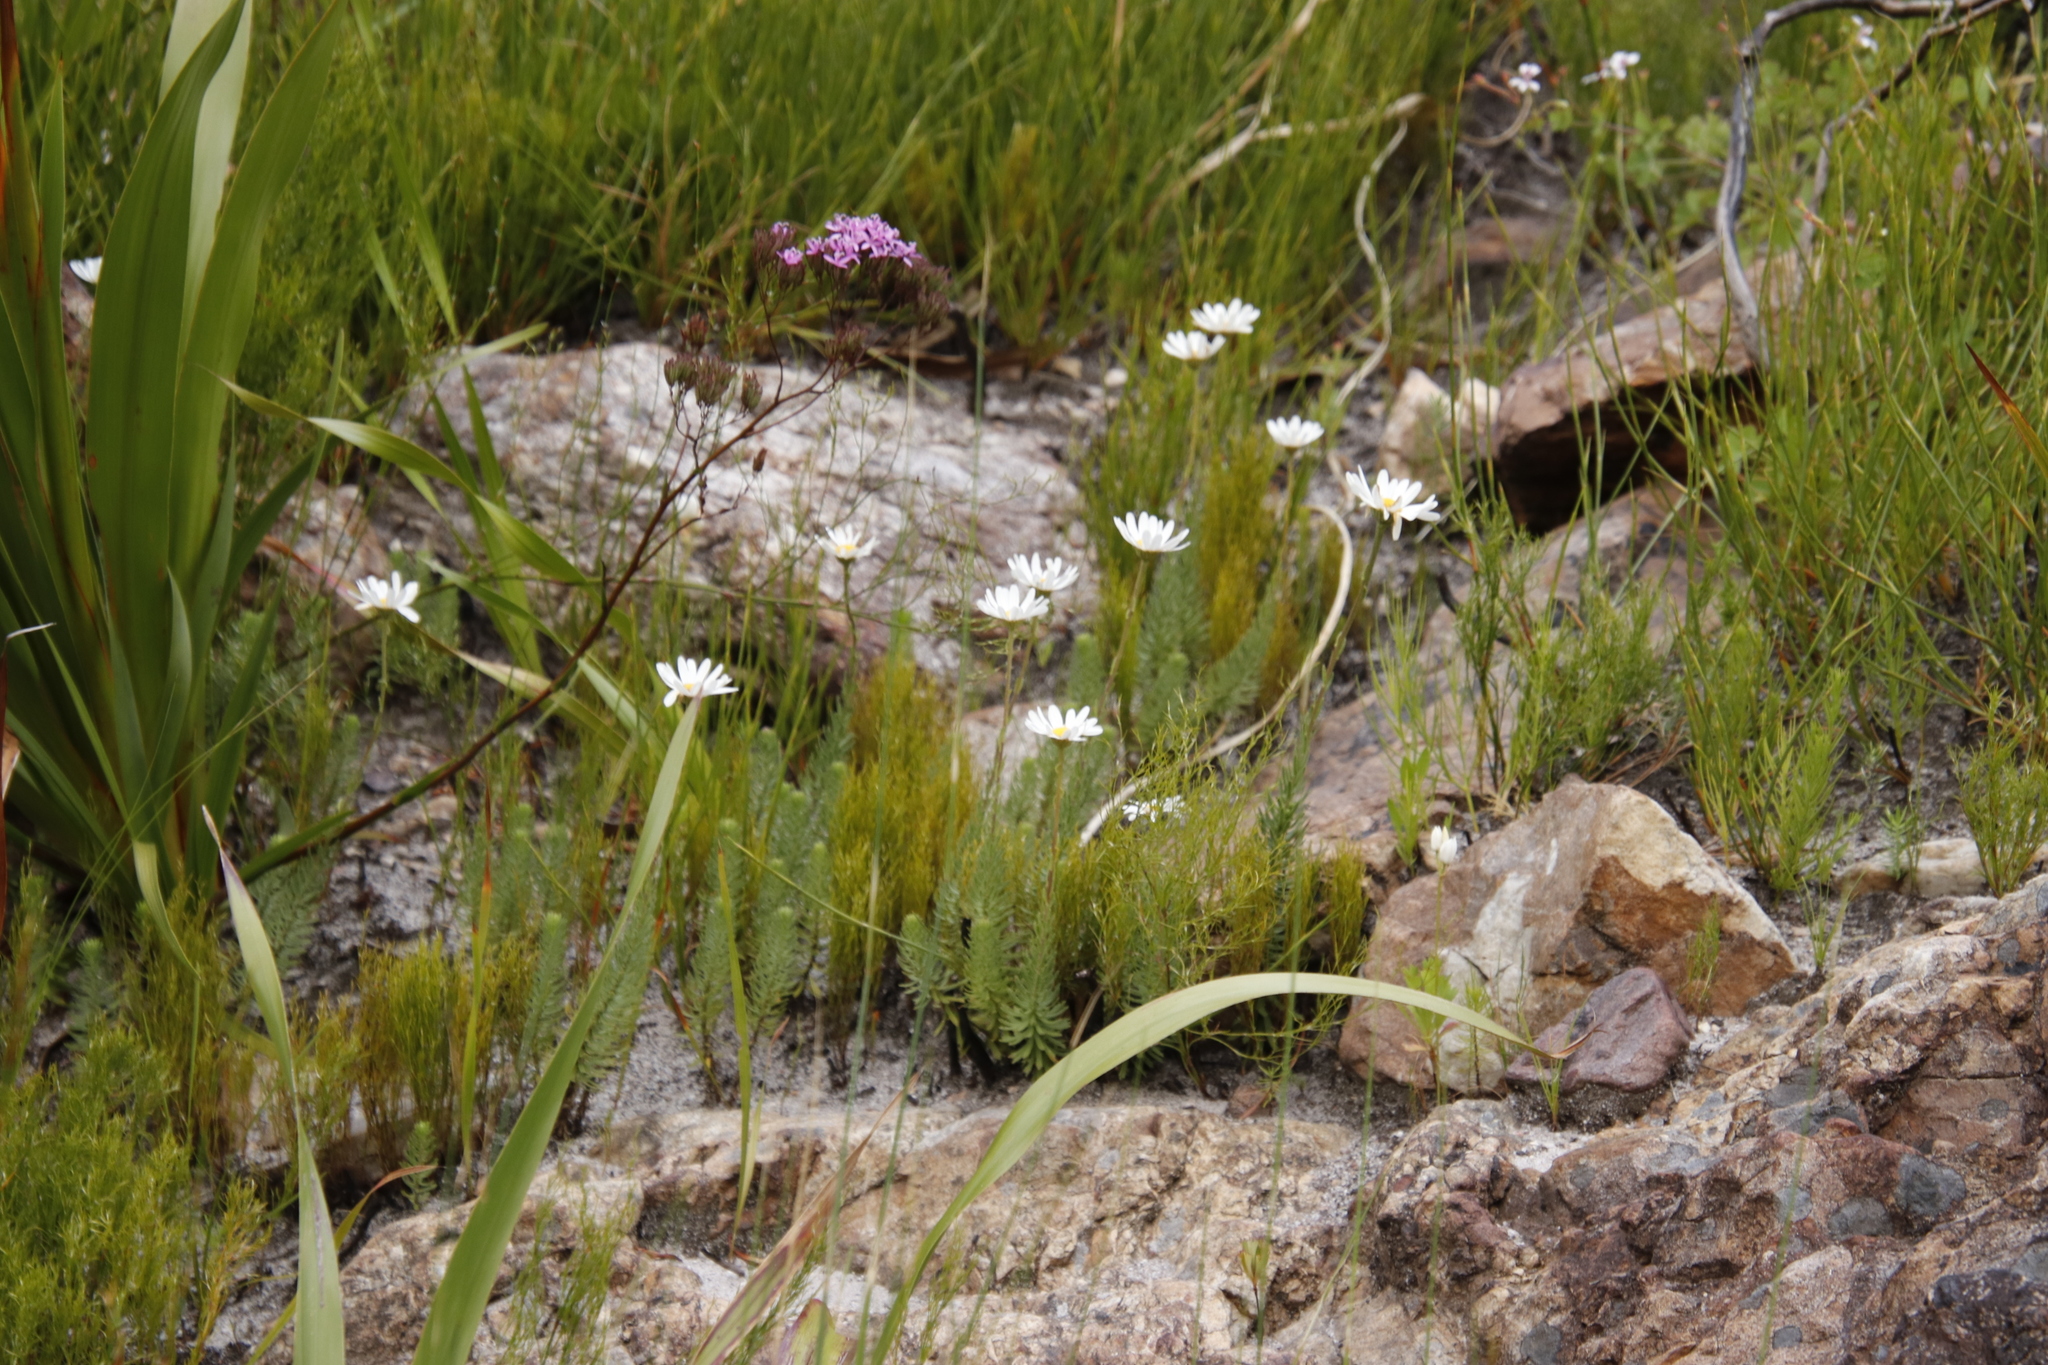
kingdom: Plantae
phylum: Tracheophyta
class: Magnoliopsida
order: Asterales
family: Asteraceae
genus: Osmitopsis
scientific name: Osmitopsis afra
